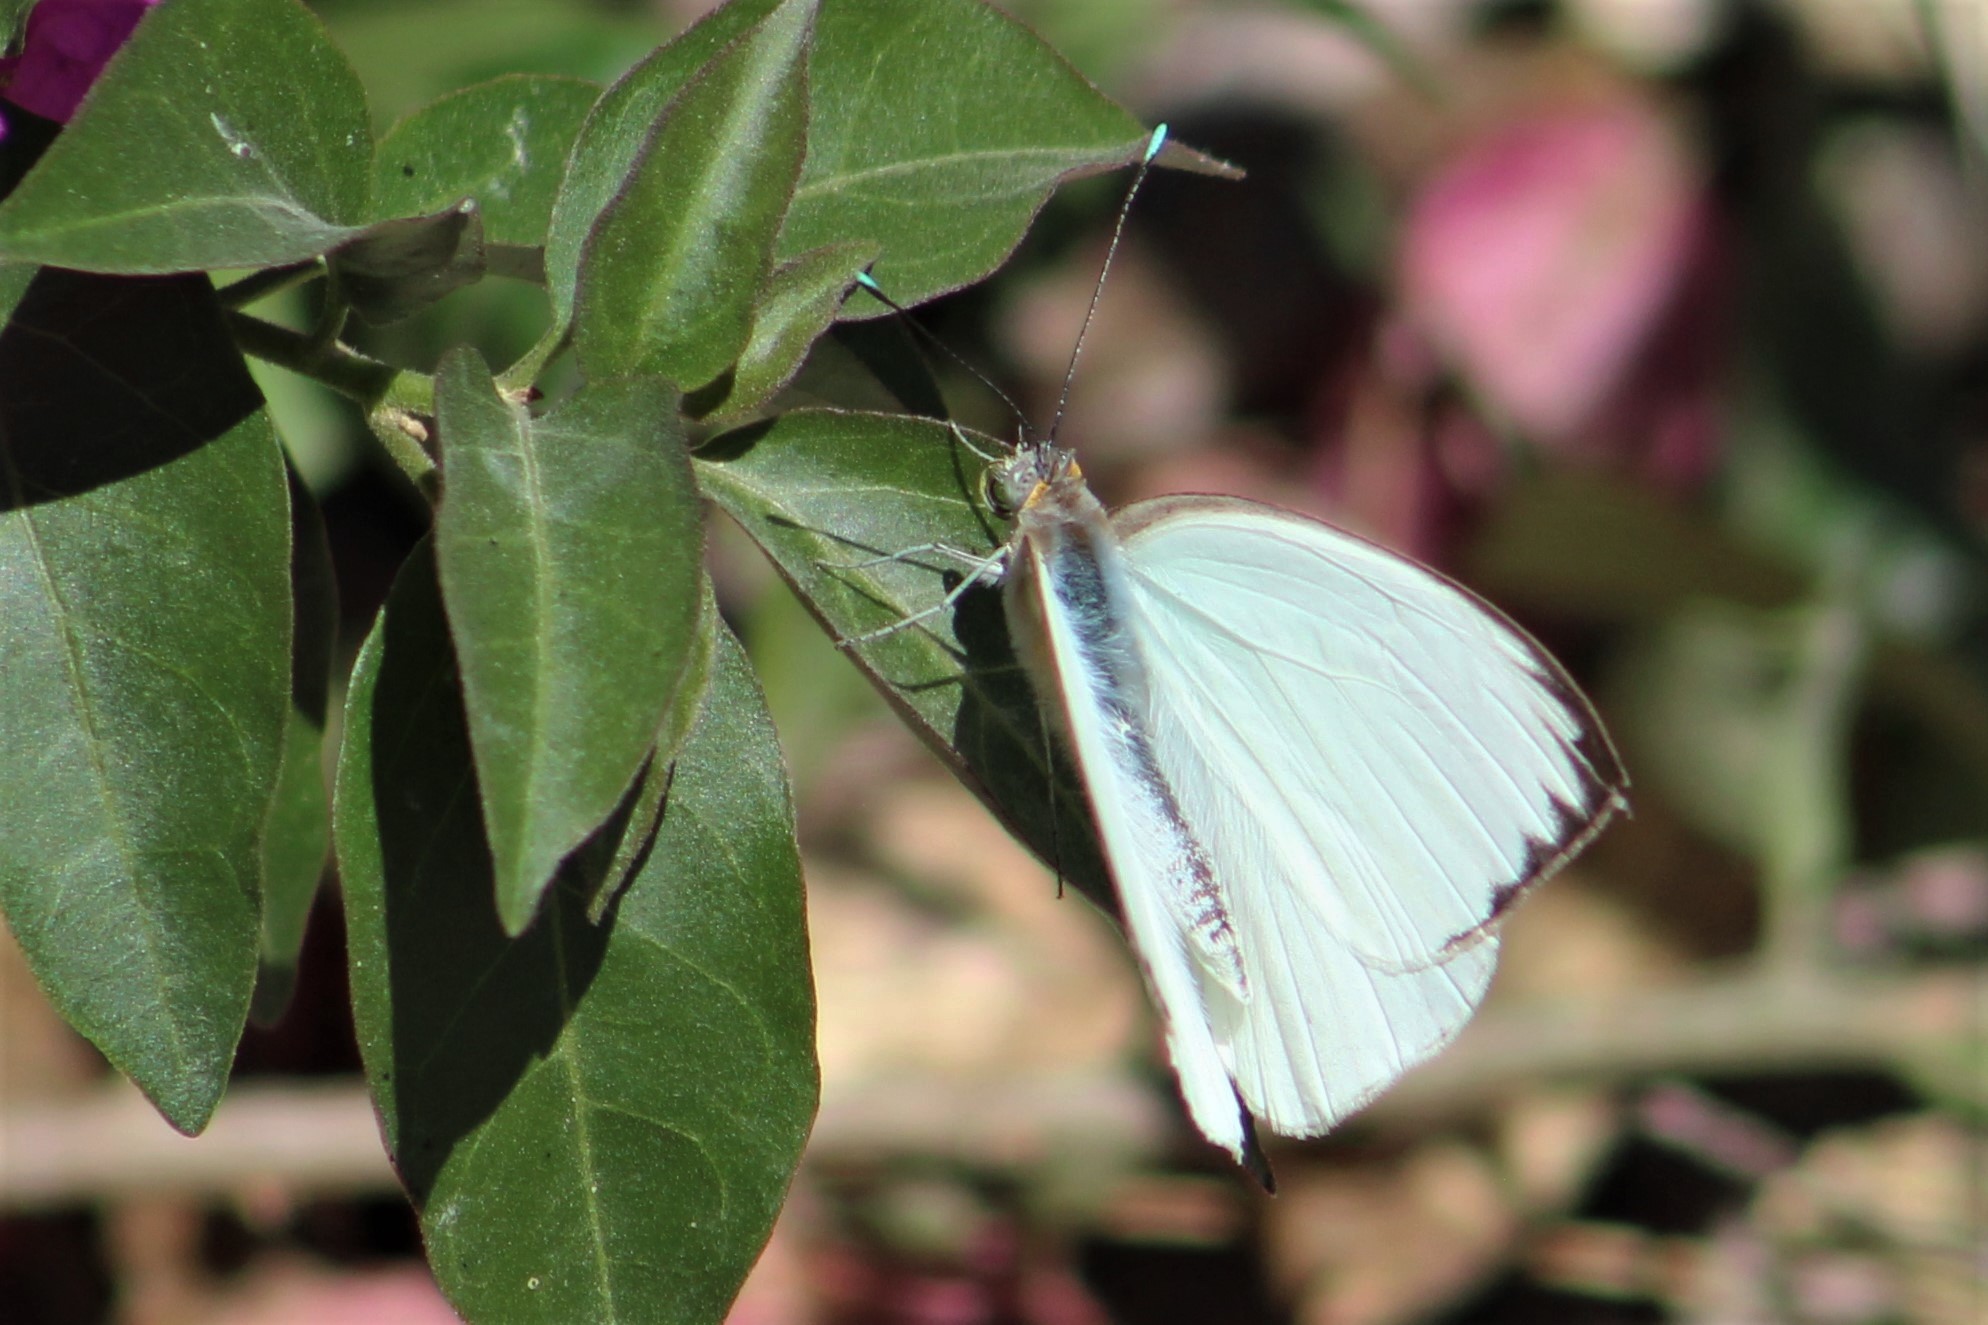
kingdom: Animalia
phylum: Arthropoda
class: Insecta
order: Lepidoptera
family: Pieridae
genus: Ascia
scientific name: Ascia monuste
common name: Great southern white
